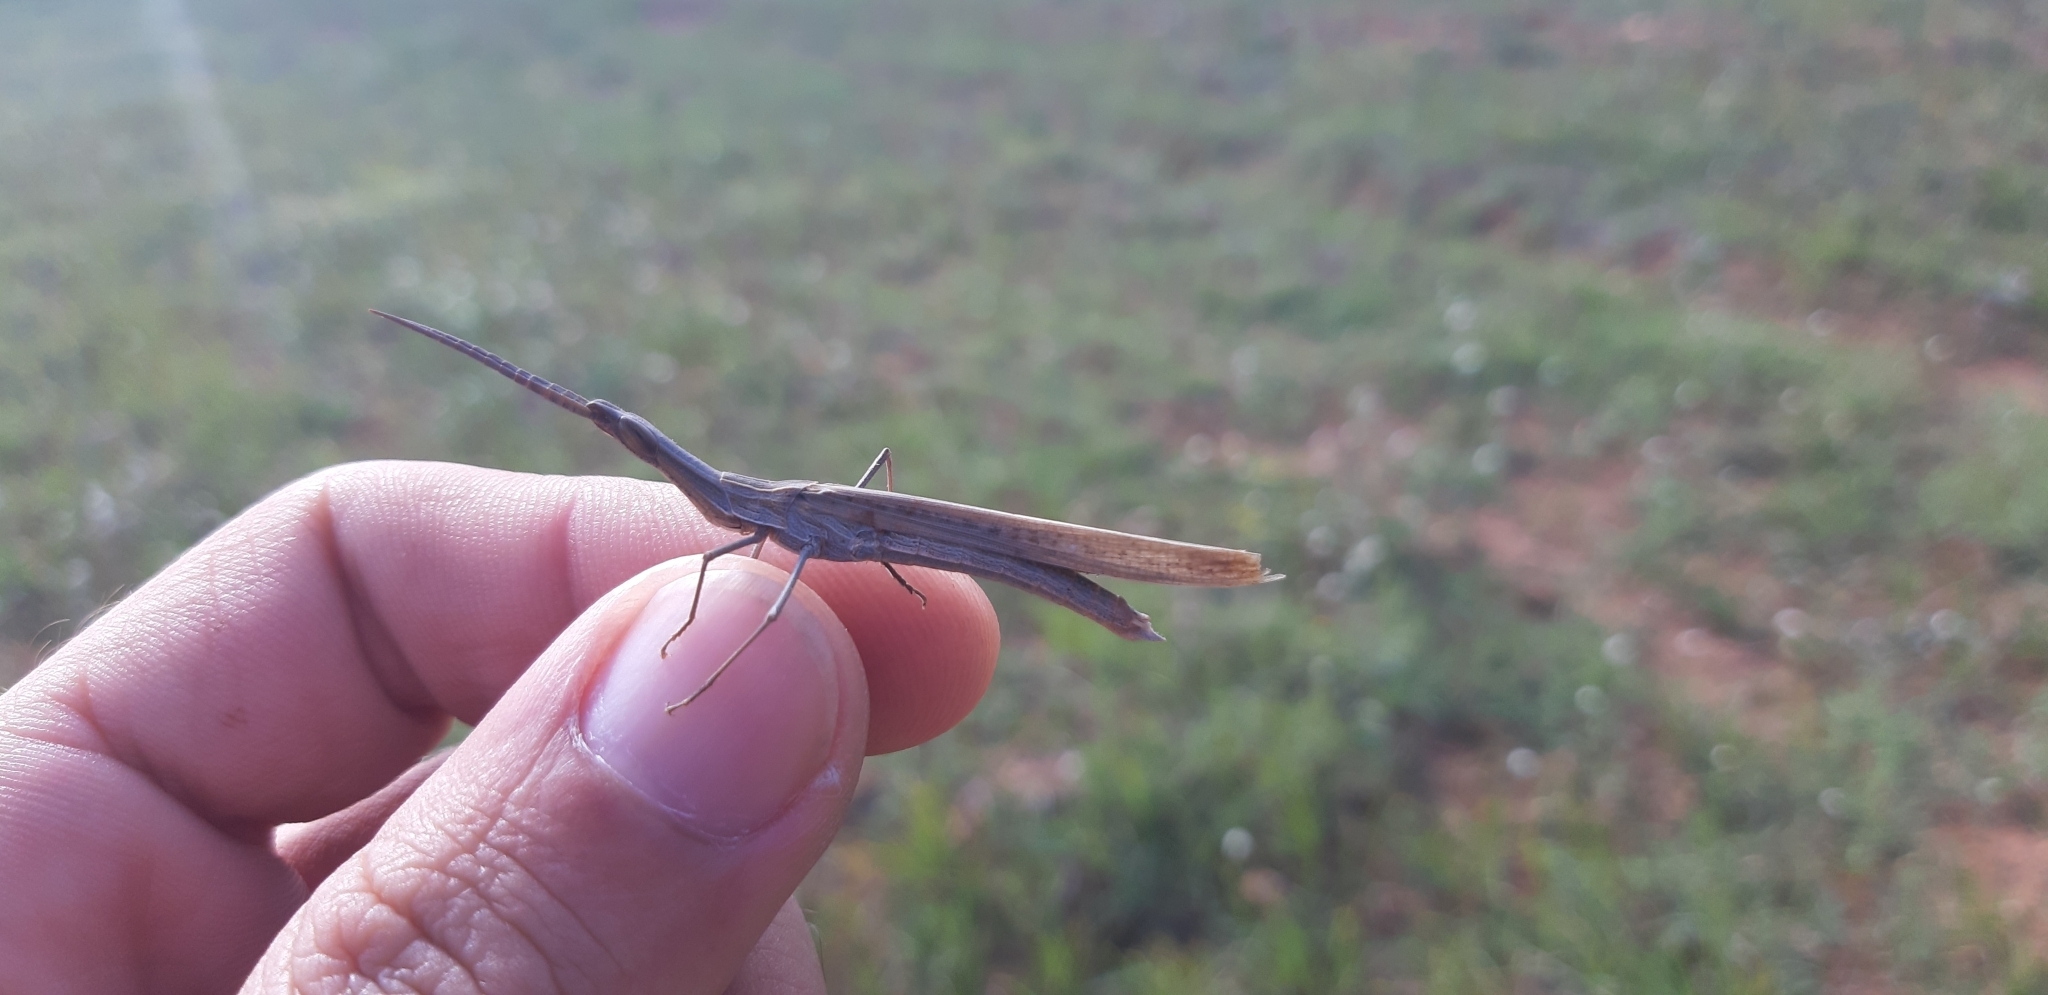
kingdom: Animalia
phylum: Arthropoda
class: Insecta
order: Orthoptera
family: Acrididae
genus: Acrida
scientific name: Acrida ungarica
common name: Common cone-headed grasshopper
